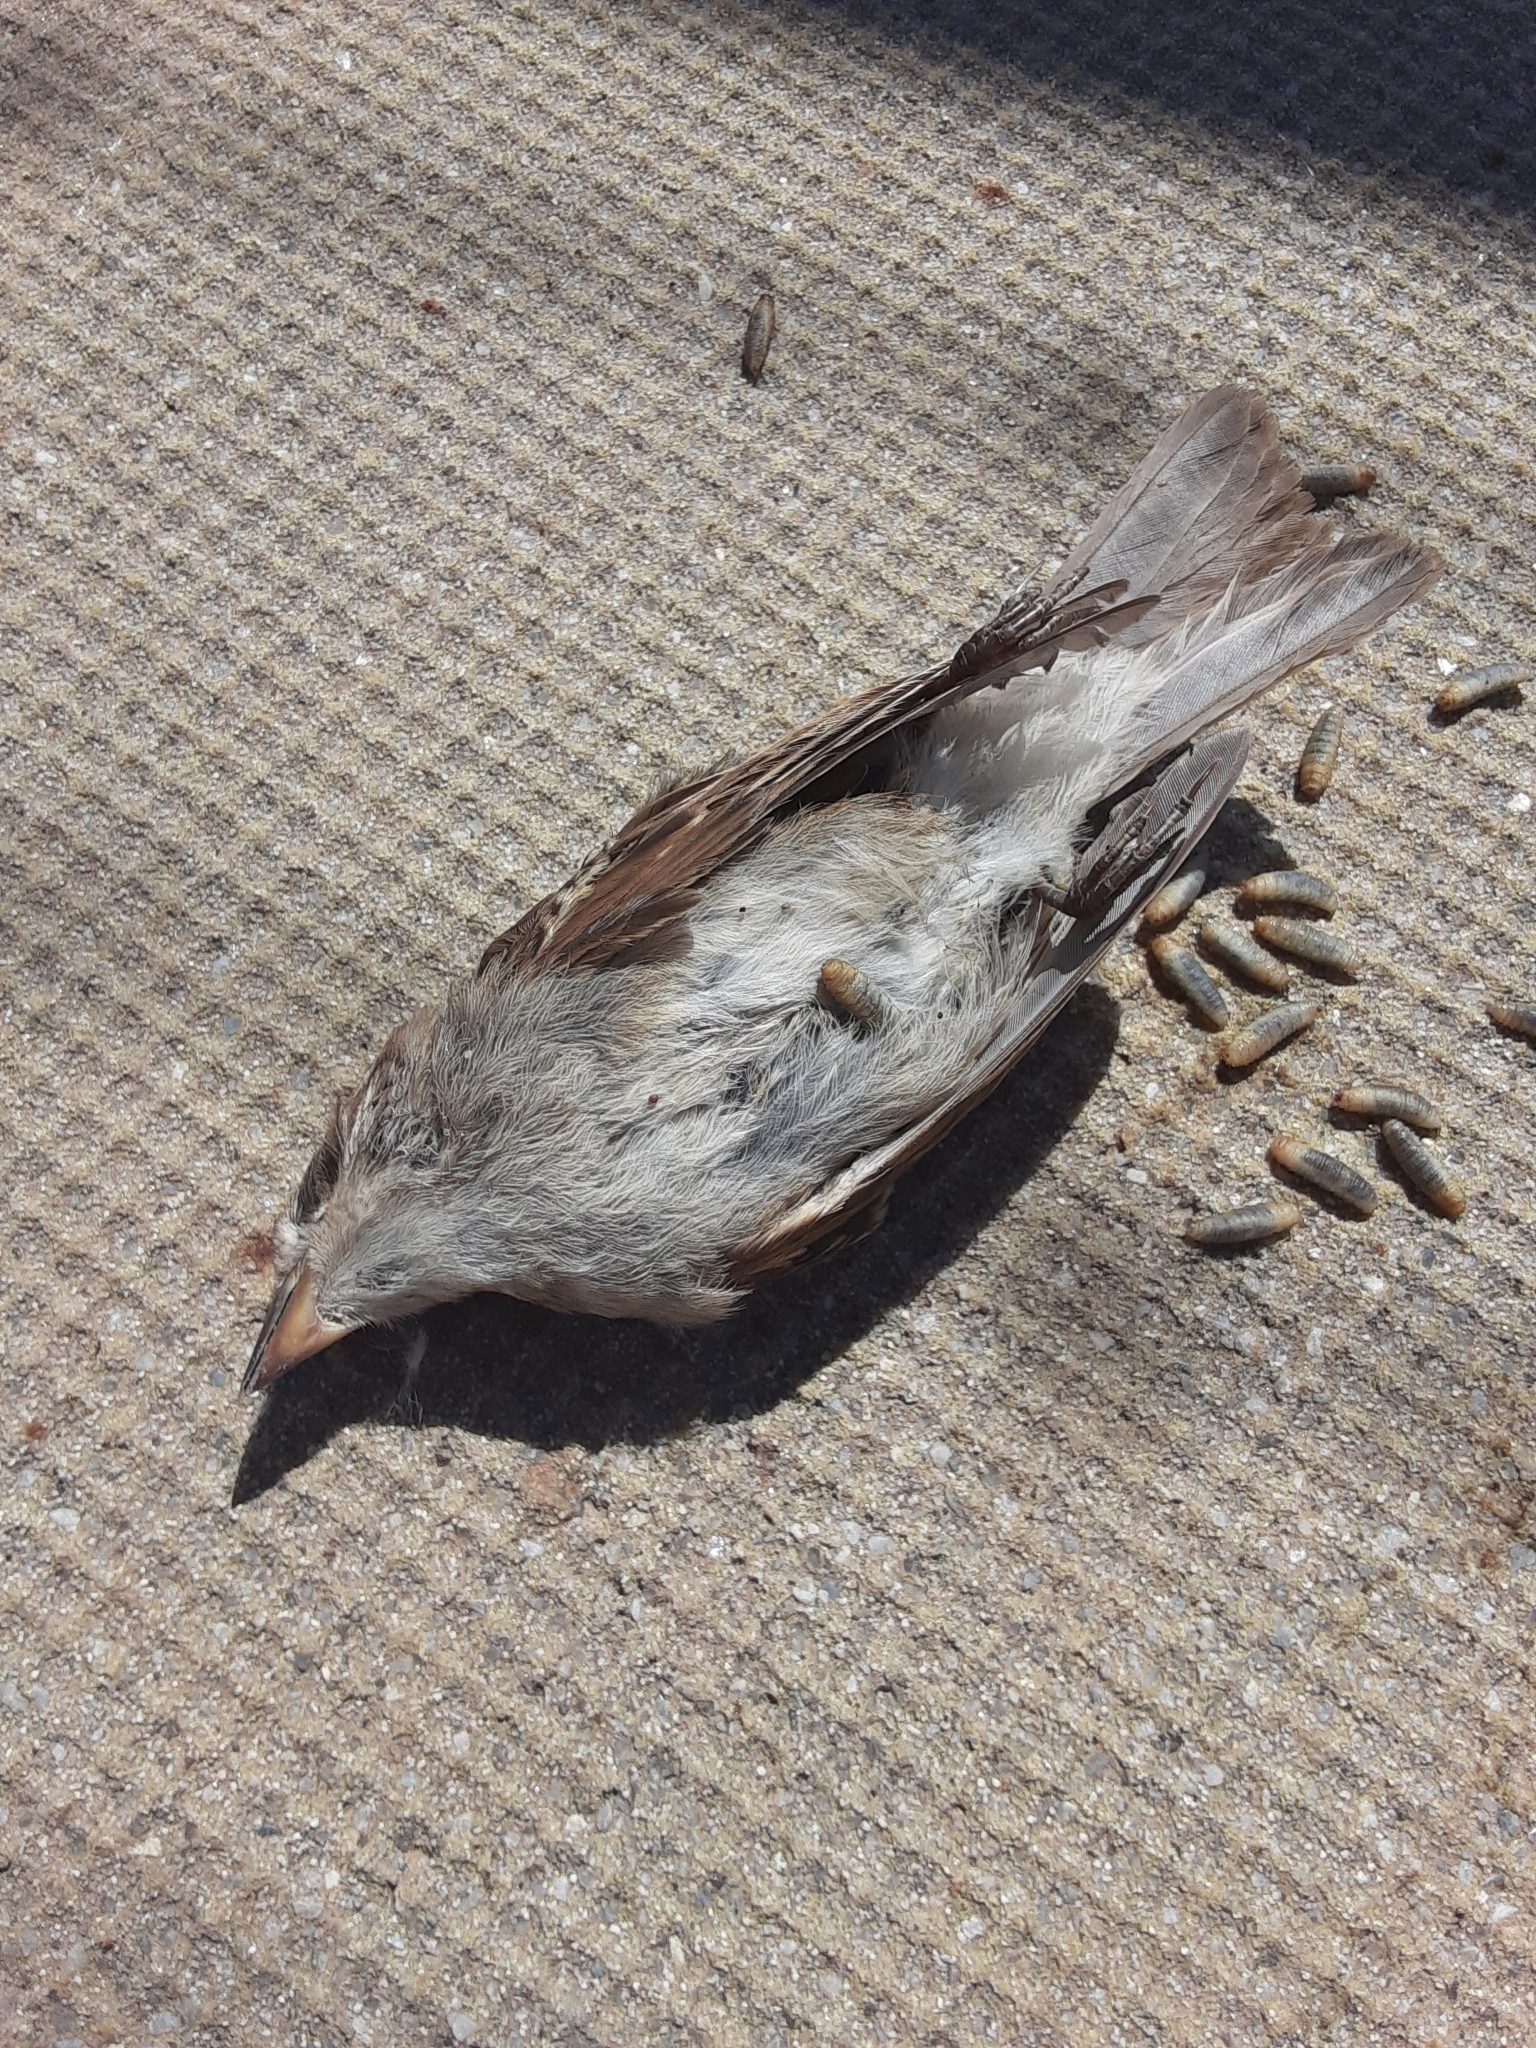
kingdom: Animalia
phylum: Chordata
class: Aves
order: Passeriformes
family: Passeridae
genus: Passer
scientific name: Passer domesticus
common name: House sparrow
